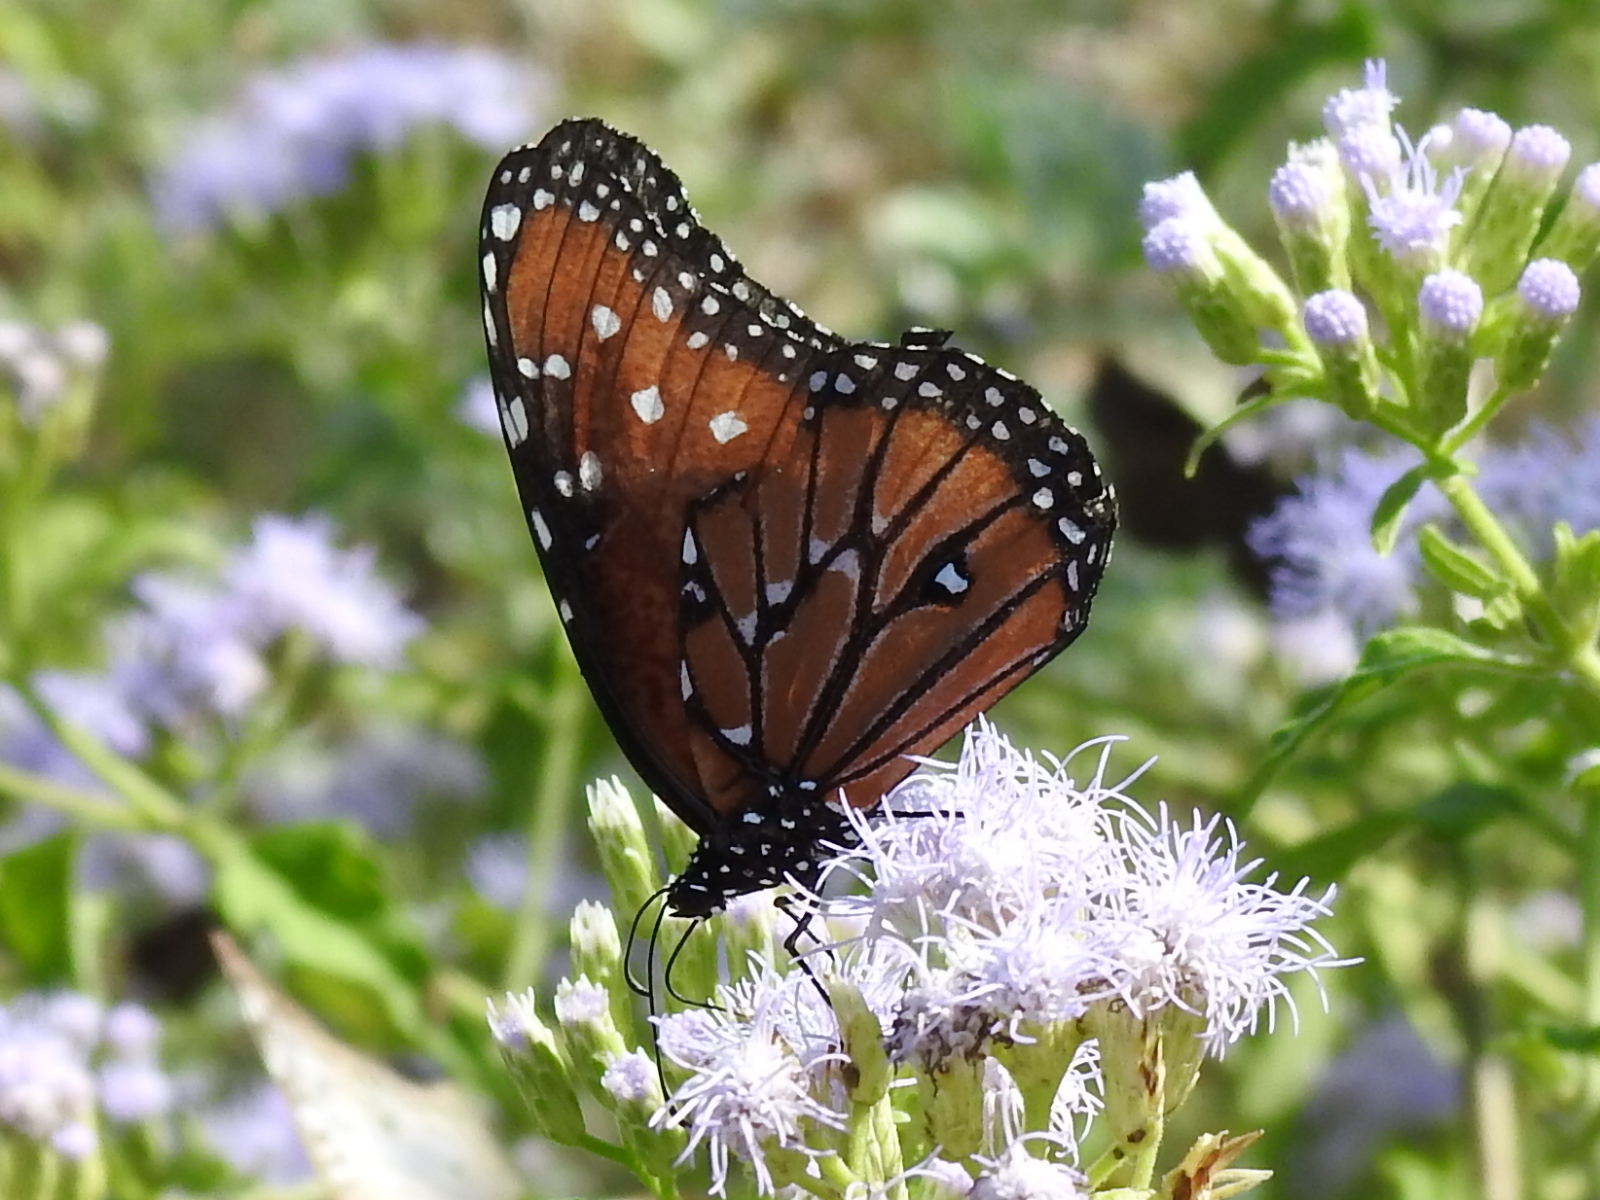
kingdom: Animalia
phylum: Arthropoda
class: Insecta
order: Lepidoptera
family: Nymphalidae
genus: Danaus
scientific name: Danaus gilippus
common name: Queen
